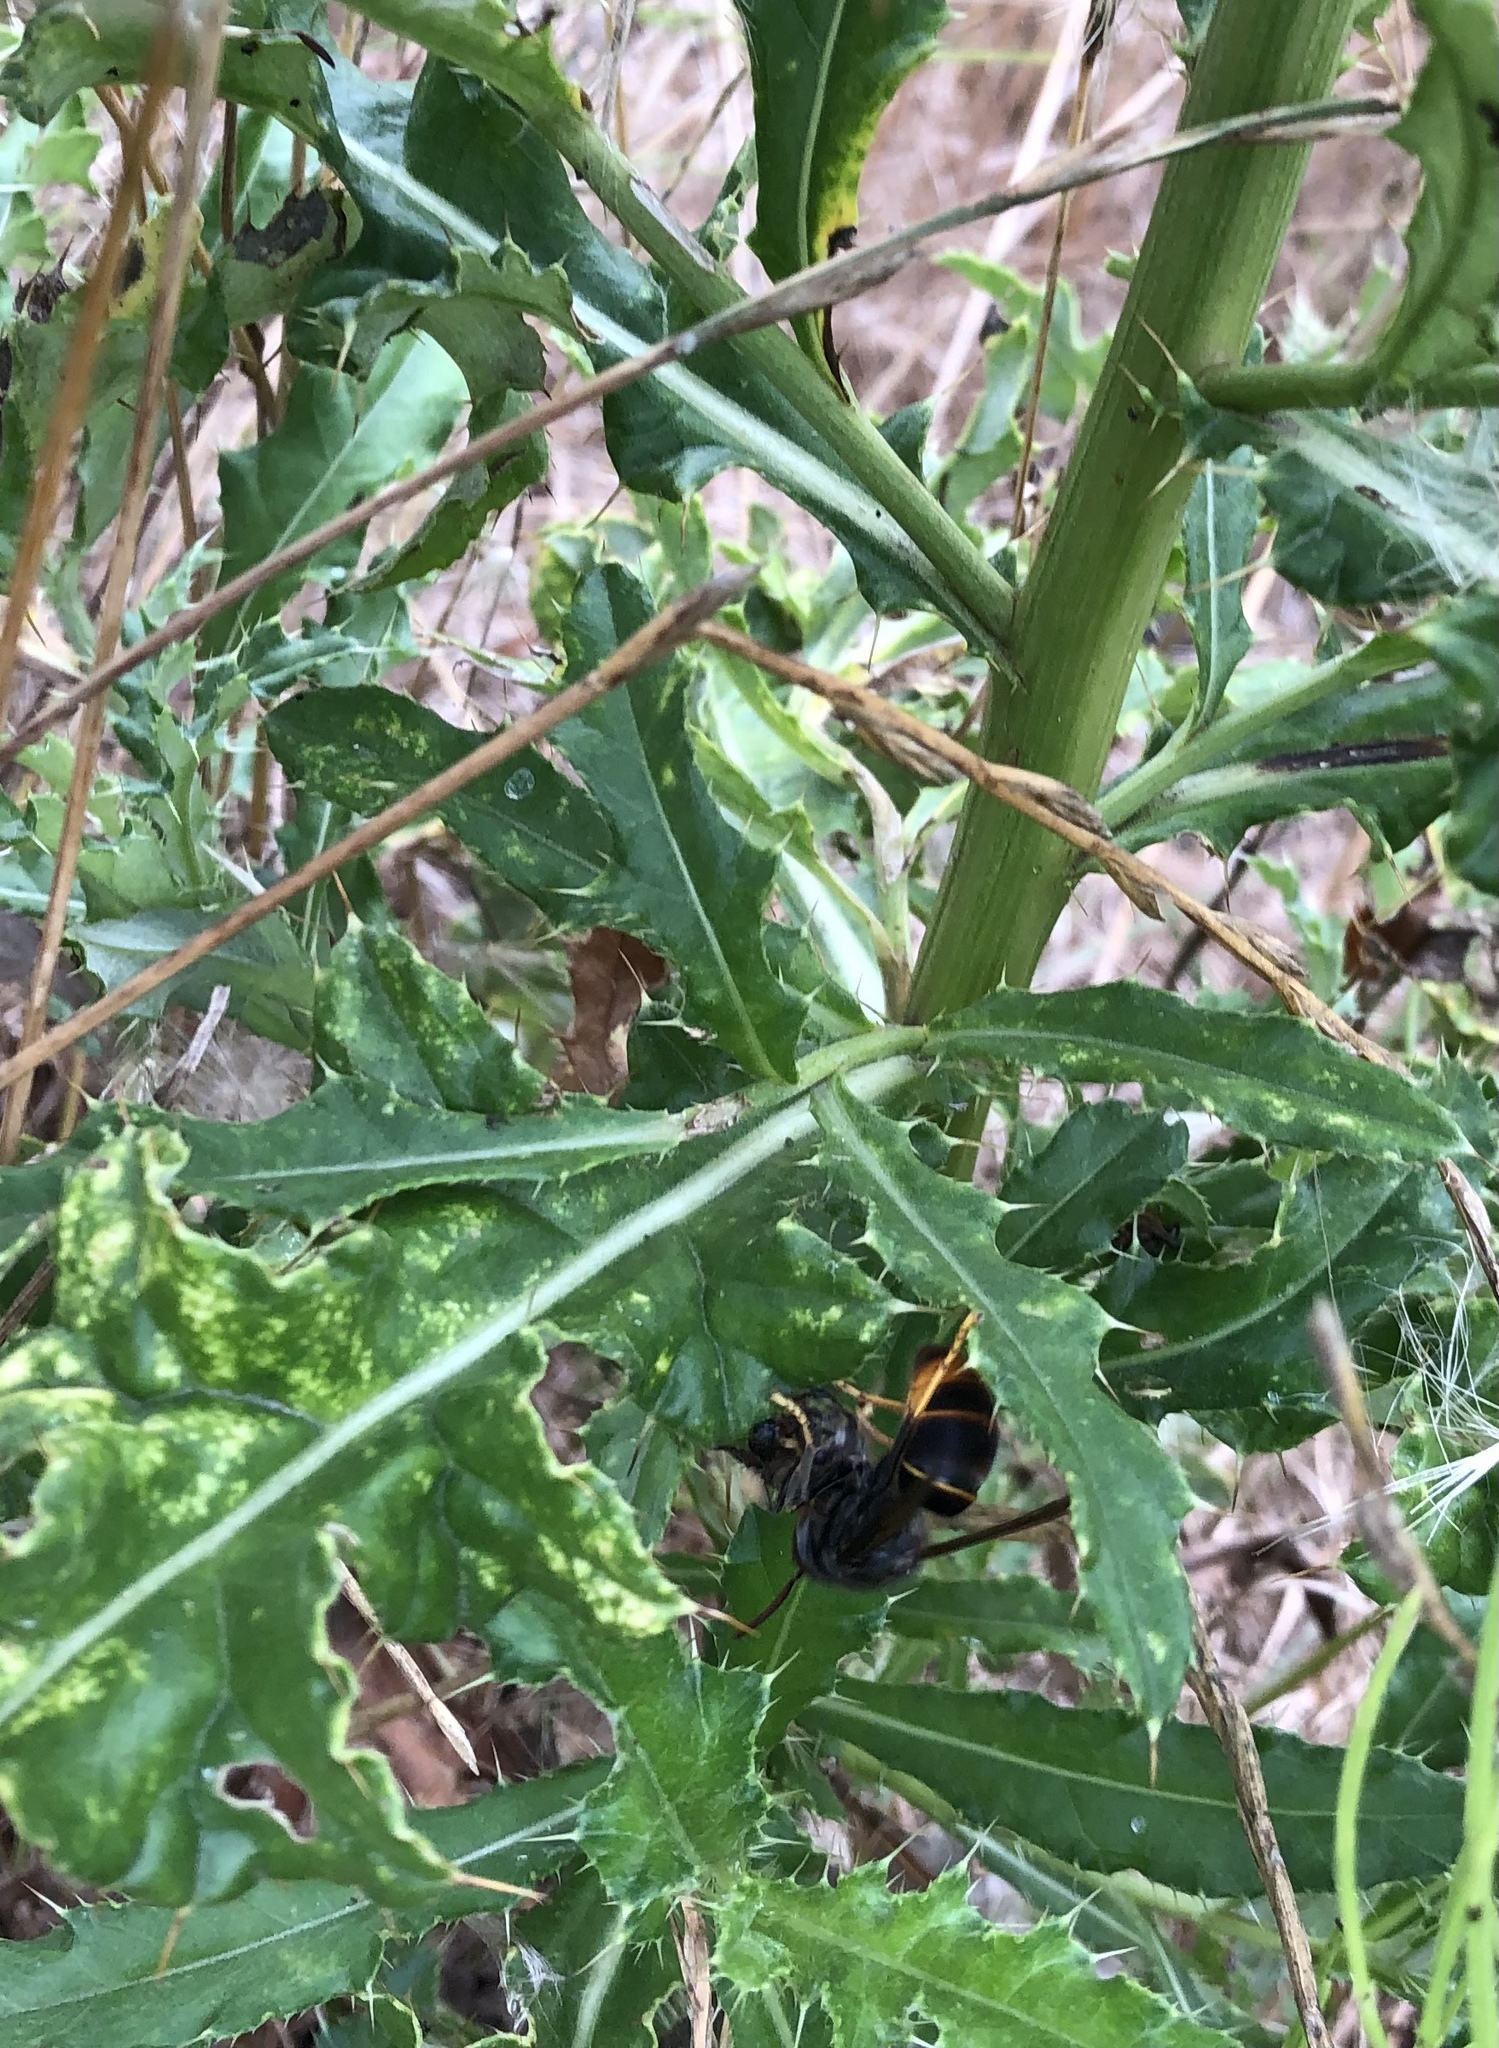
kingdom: Animalia
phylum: Arthropoda
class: Insecta
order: Hymenoptera
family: Vespidae
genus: Vespa
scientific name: Vespa velutina
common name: Asian hornet
